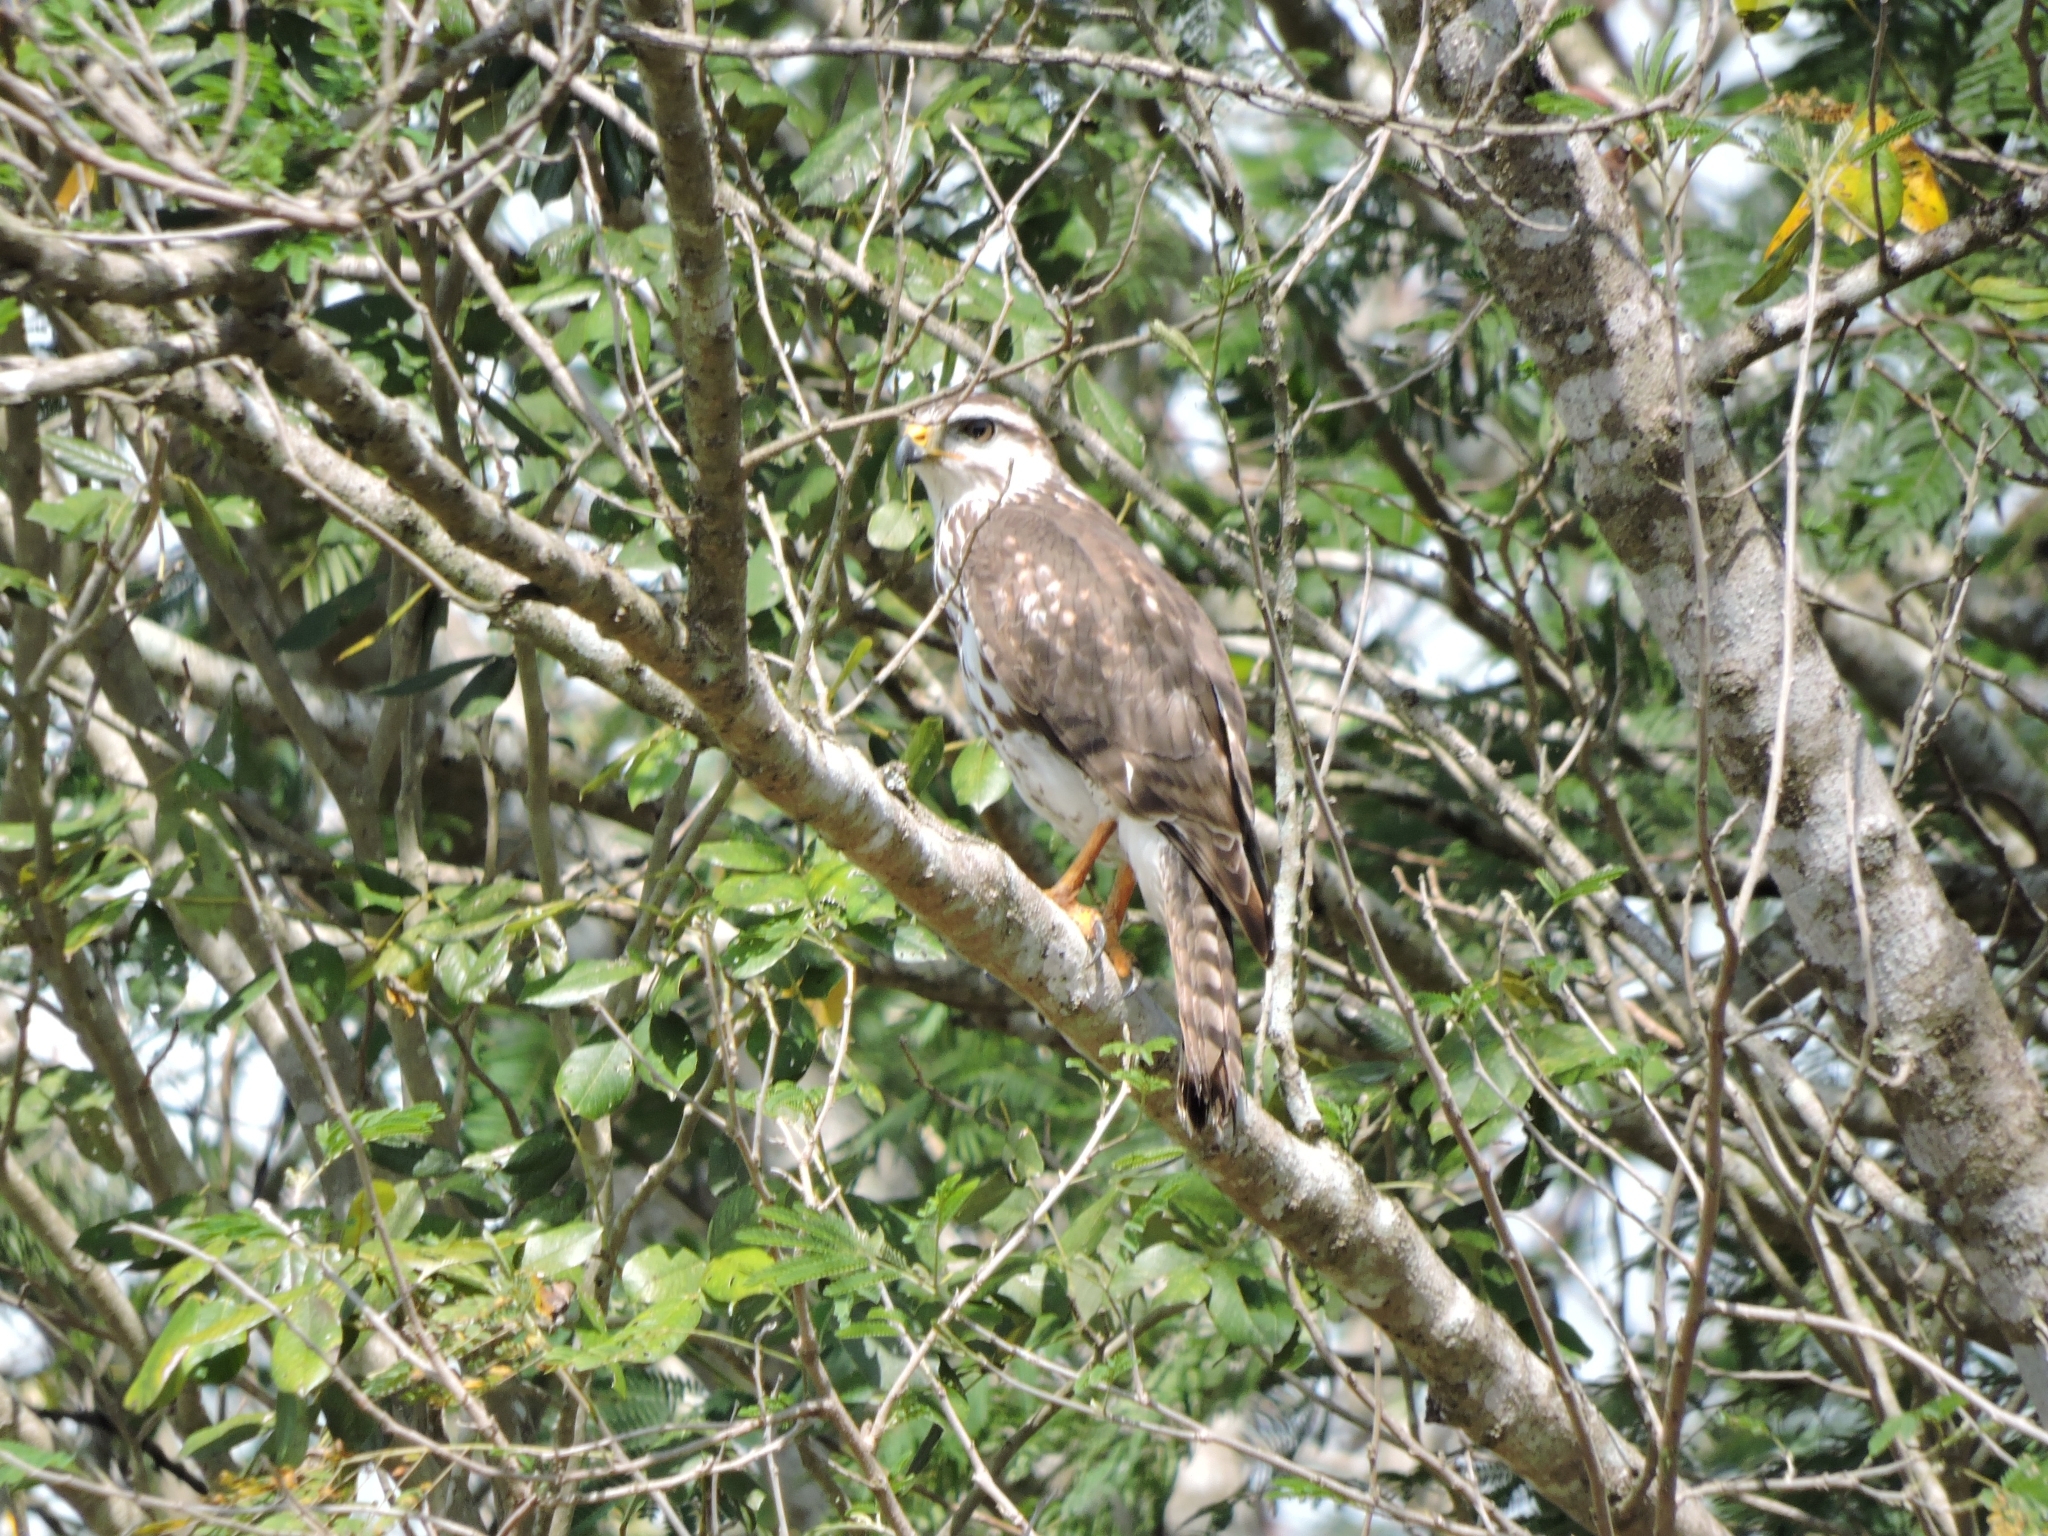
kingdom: Animalia
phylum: Chordata
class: Aves
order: Accipitriformes
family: Accipitridae
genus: Buteo
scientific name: Buteo nitidus
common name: Grey-lined hawk
